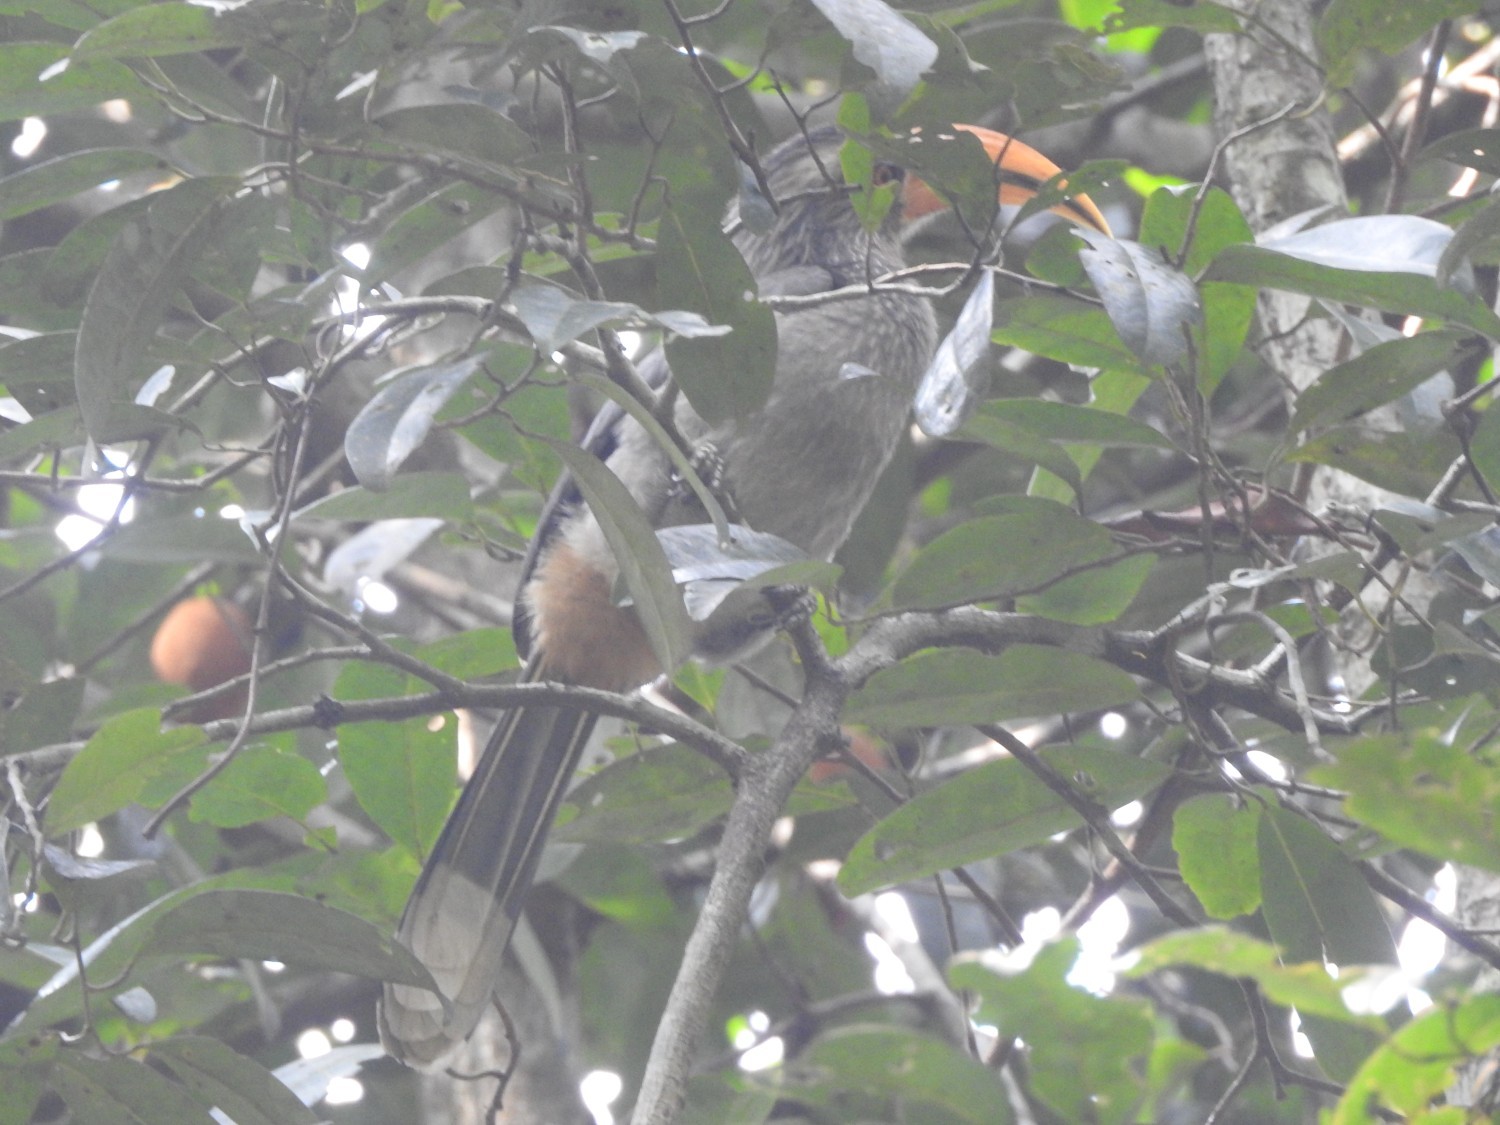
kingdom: Animalia
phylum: Chordata
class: Aves
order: Bucerotiformes
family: Bucerotidae
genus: Ocyceros
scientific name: Ocyceros griseus
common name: Malabar grey hornbill
